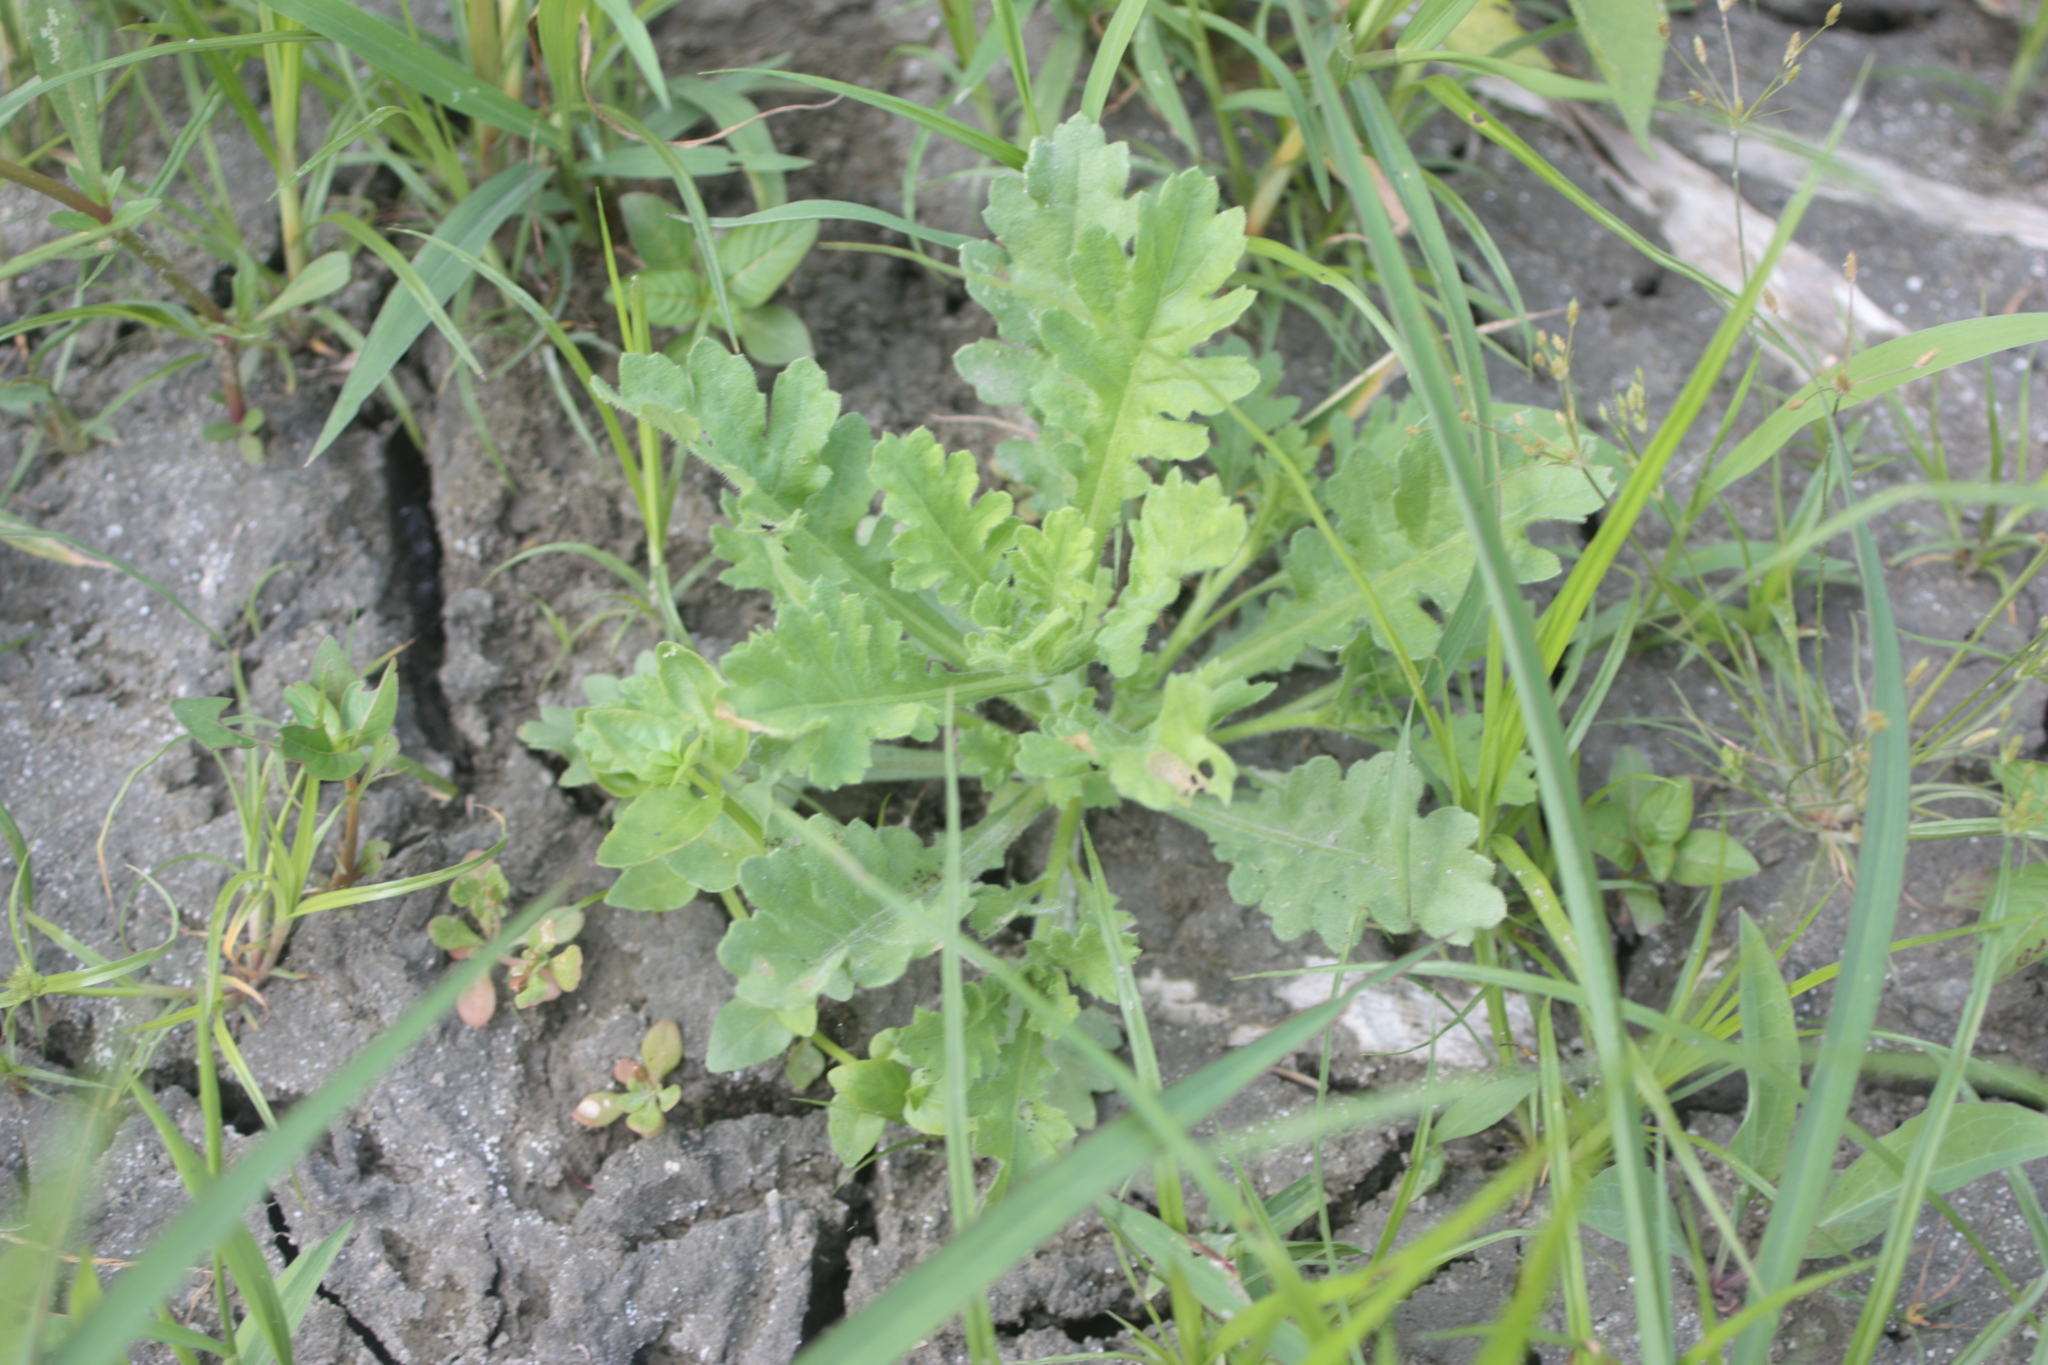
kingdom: Plantae
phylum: Tracheophyta
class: Magnoliopsida
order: Asterales
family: Asteraceae
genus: Grangea
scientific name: Grangea maderaspatana
